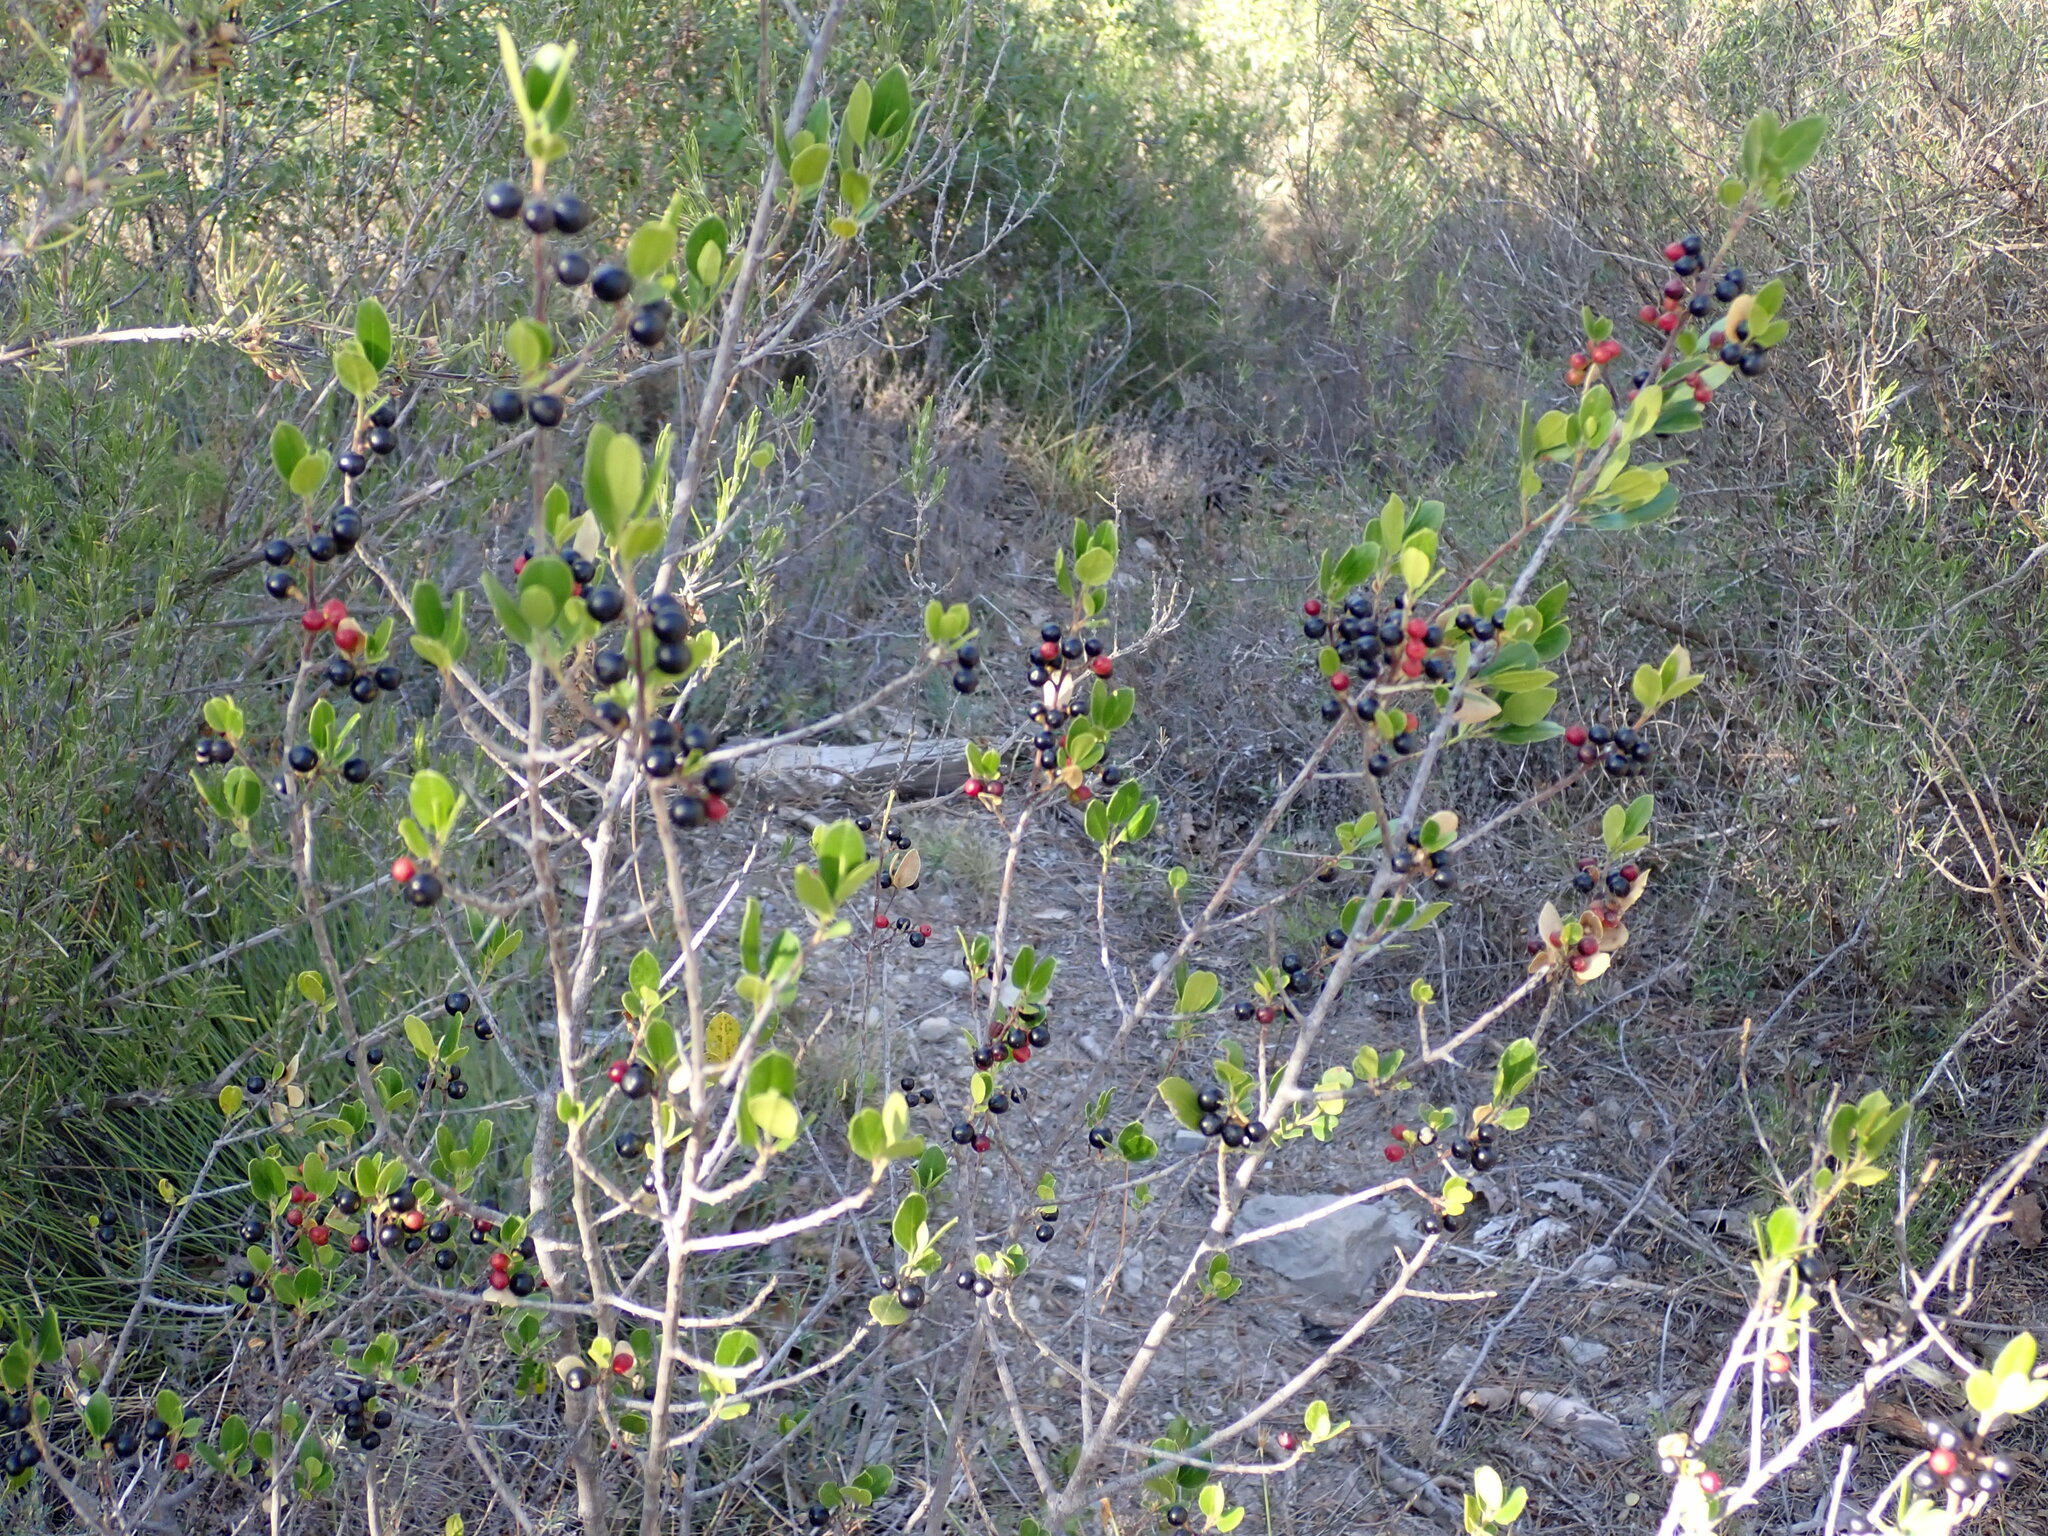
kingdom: Plantae
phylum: Tracheophyta
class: Magnoliopsida
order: Rosales
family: Rhamnaceae
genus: Rhamnus
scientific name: Rhamnus alaternus
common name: Mediterranean buckthorn
